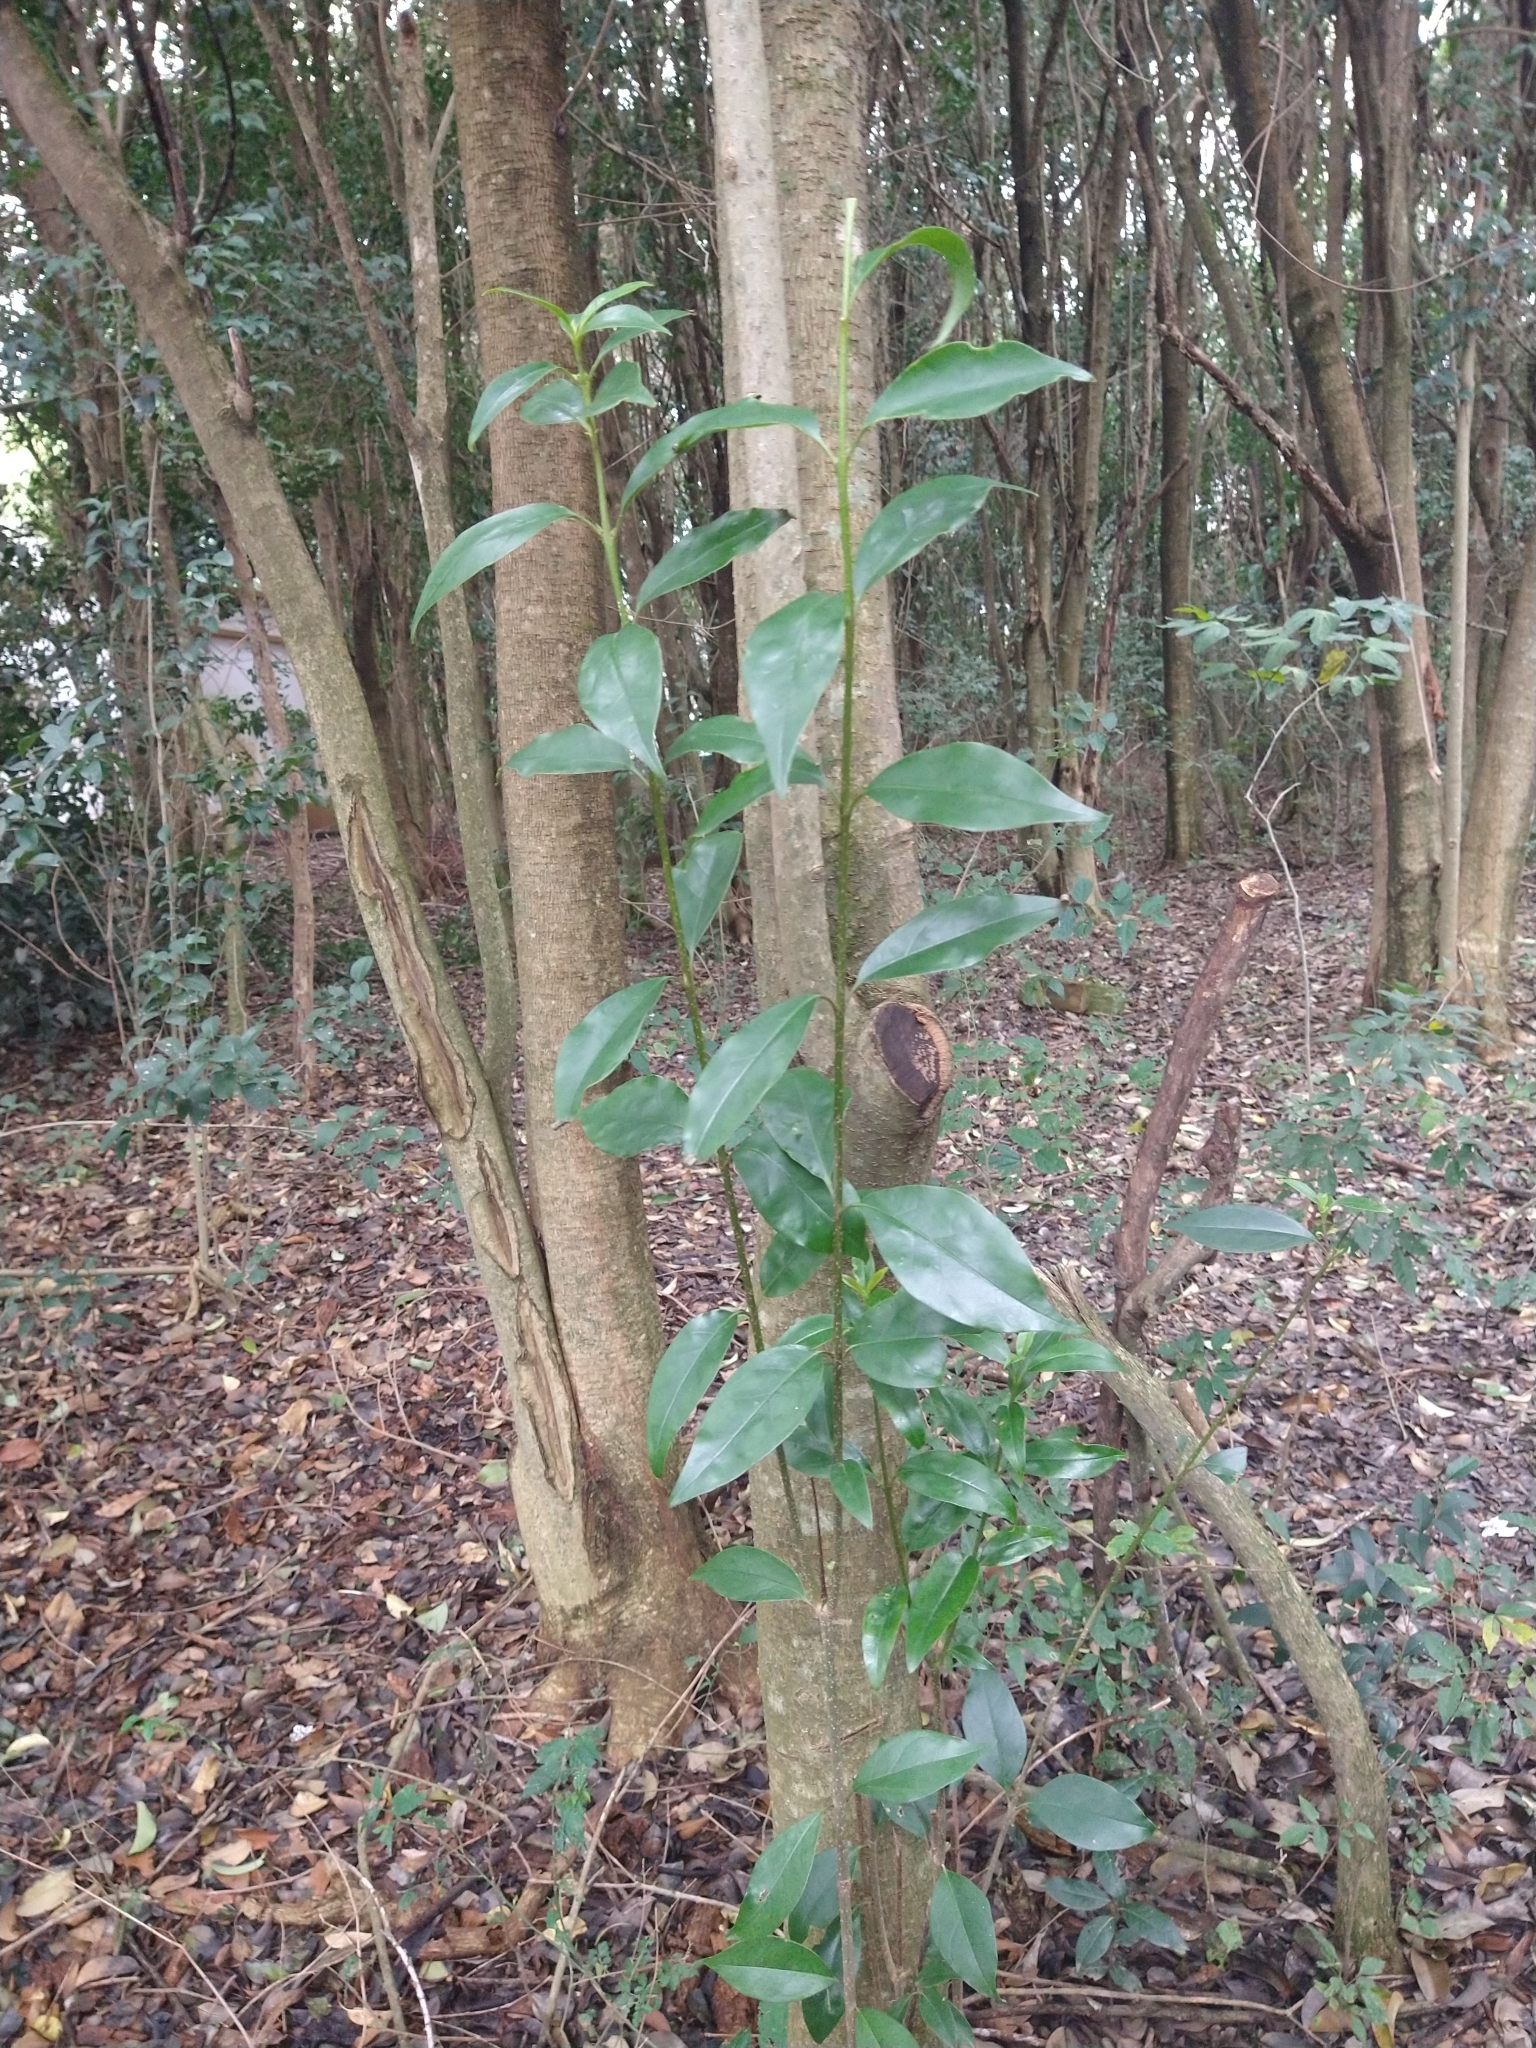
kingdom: Plantae
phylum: Tracheophyta
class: Magnoliopsida
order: Lamiales
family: Oleaceae
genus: Ligustrum
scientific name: Ligustrum lucidum
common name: Glossy privet
